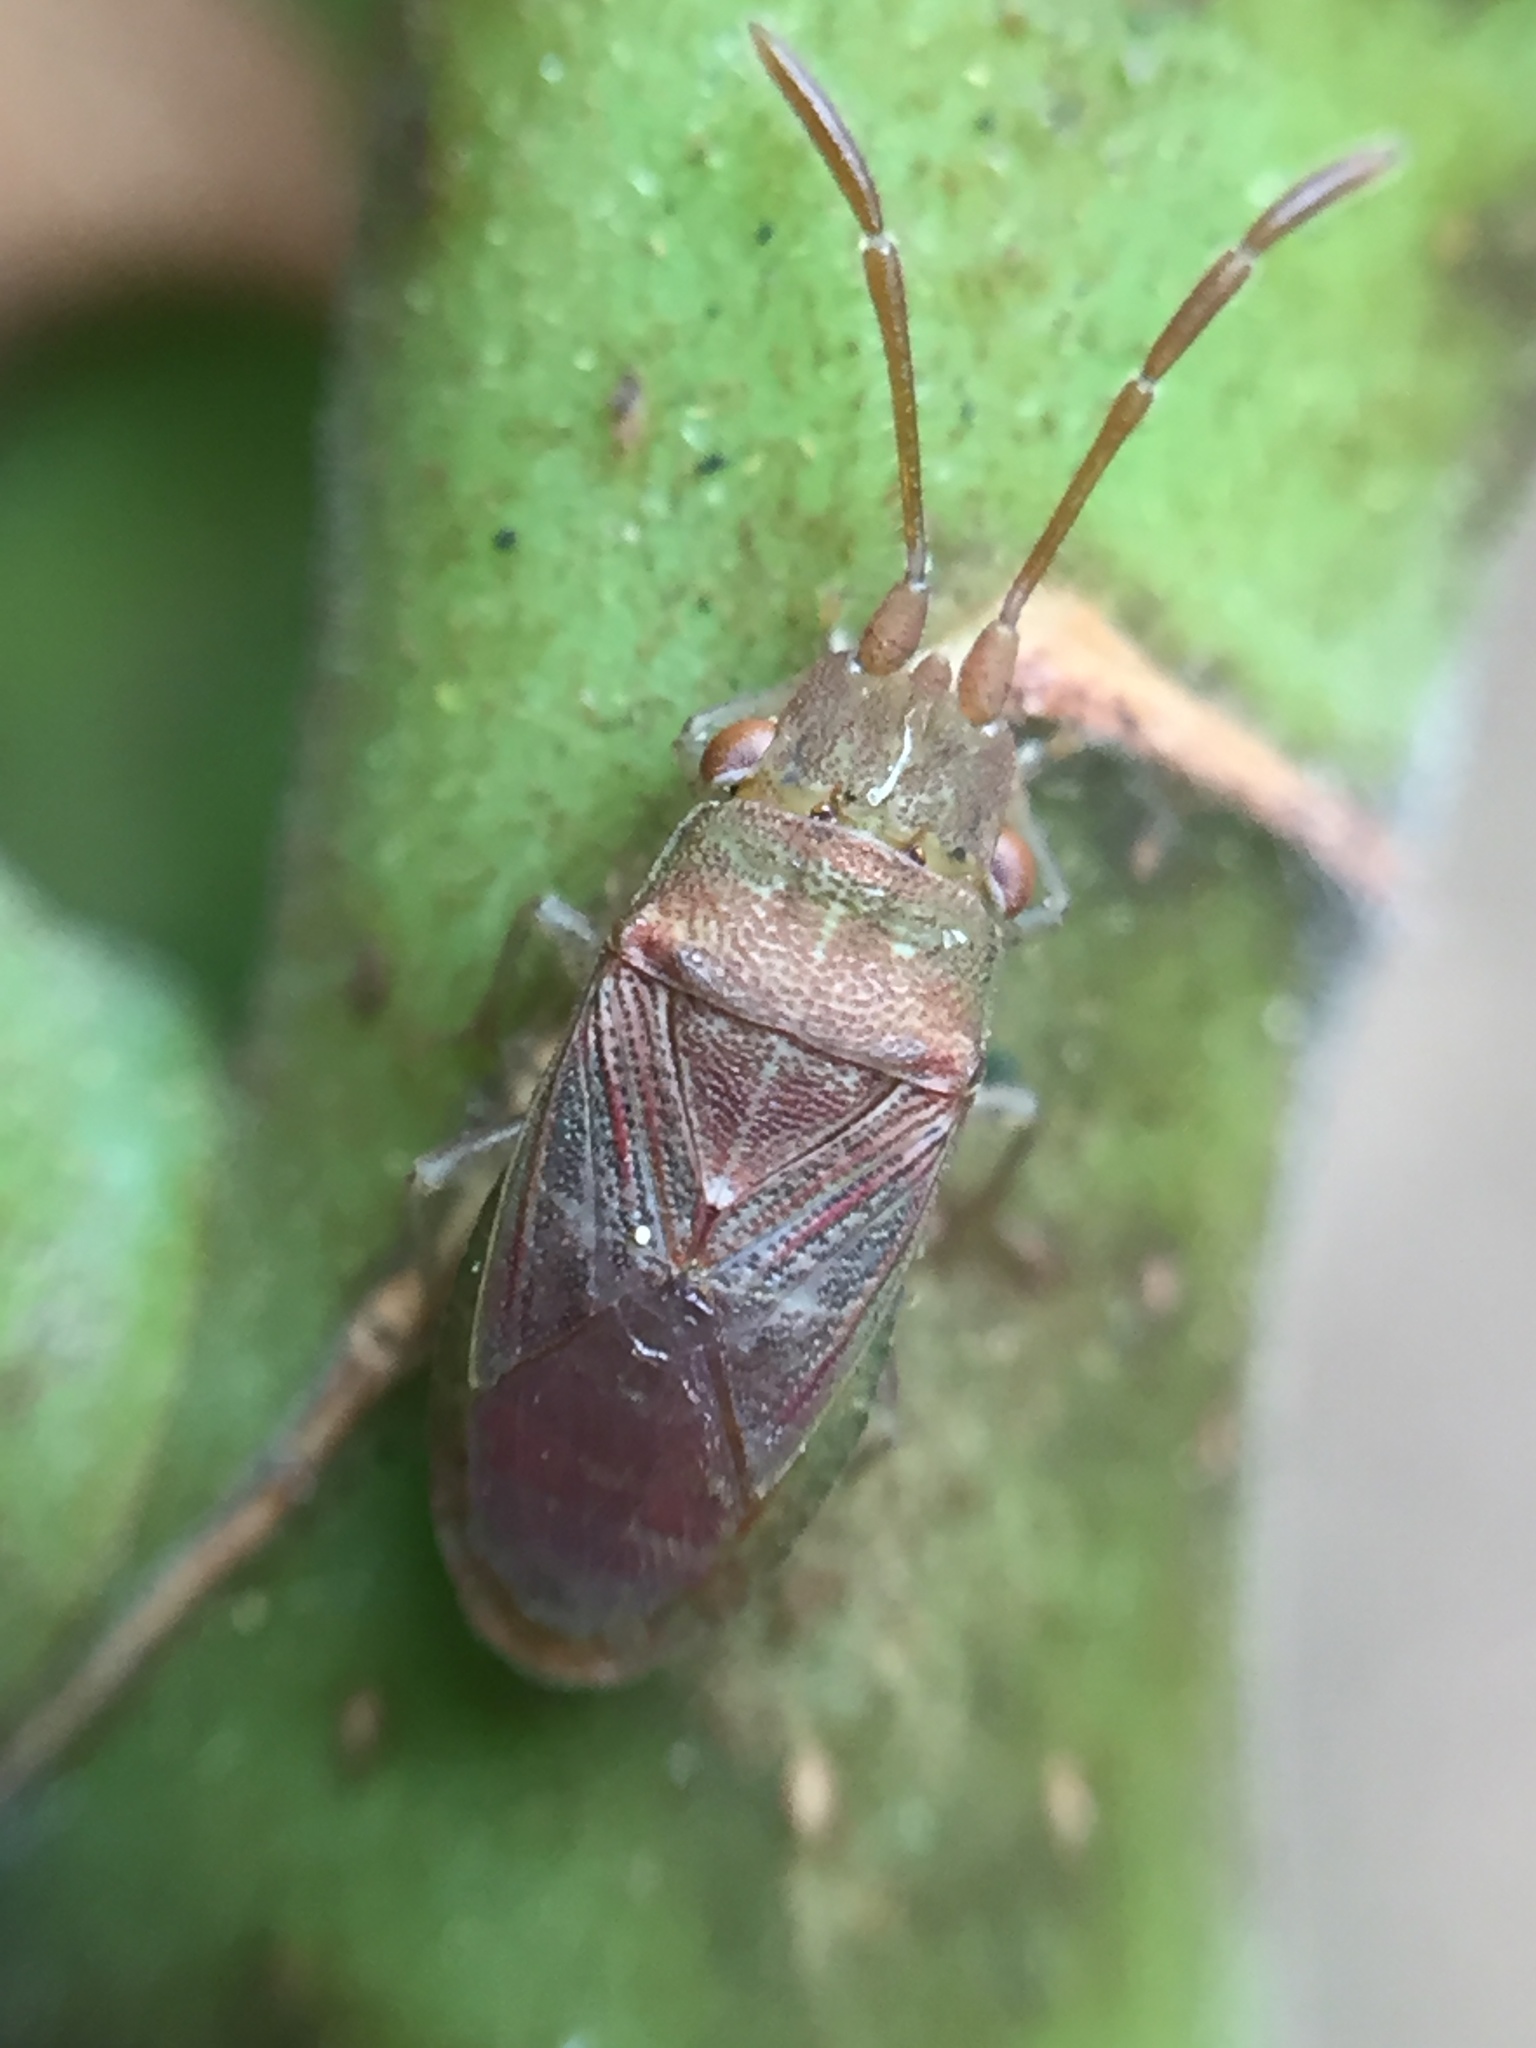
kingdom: Animalia
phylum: Arthropoda
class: Insecta
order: Hemiptera
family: Meschiidae
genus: Meschia
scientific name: Meschia barrowensis
